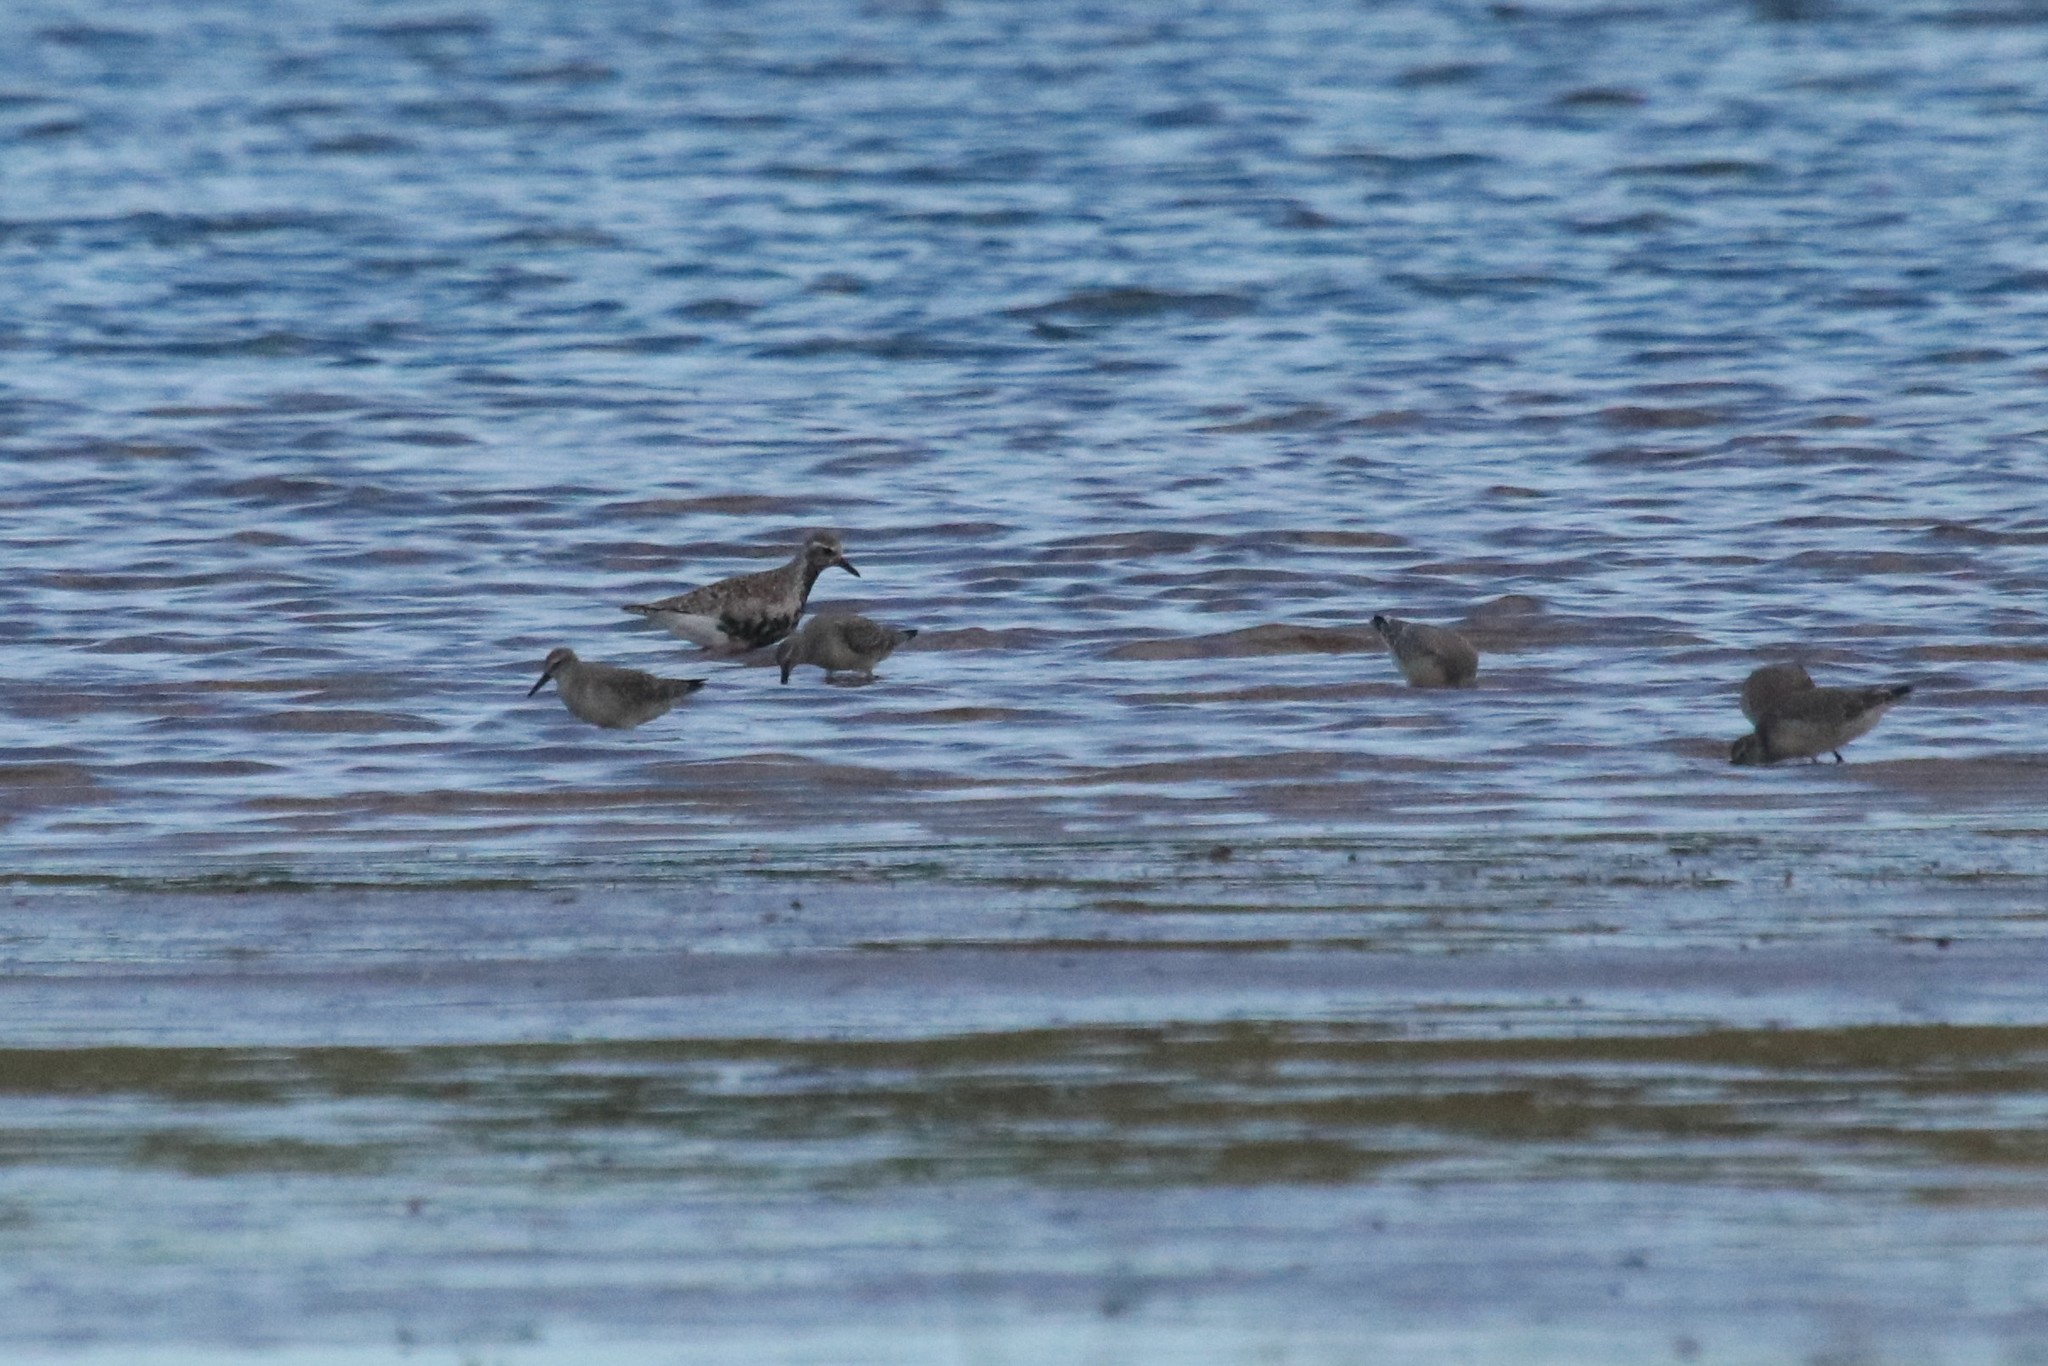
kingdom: Animalia
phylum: Chordata
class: Aves
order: Charadriiformes
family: Scolopacidae
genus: Calidris
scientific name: Calidris canutus
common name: Red knot
